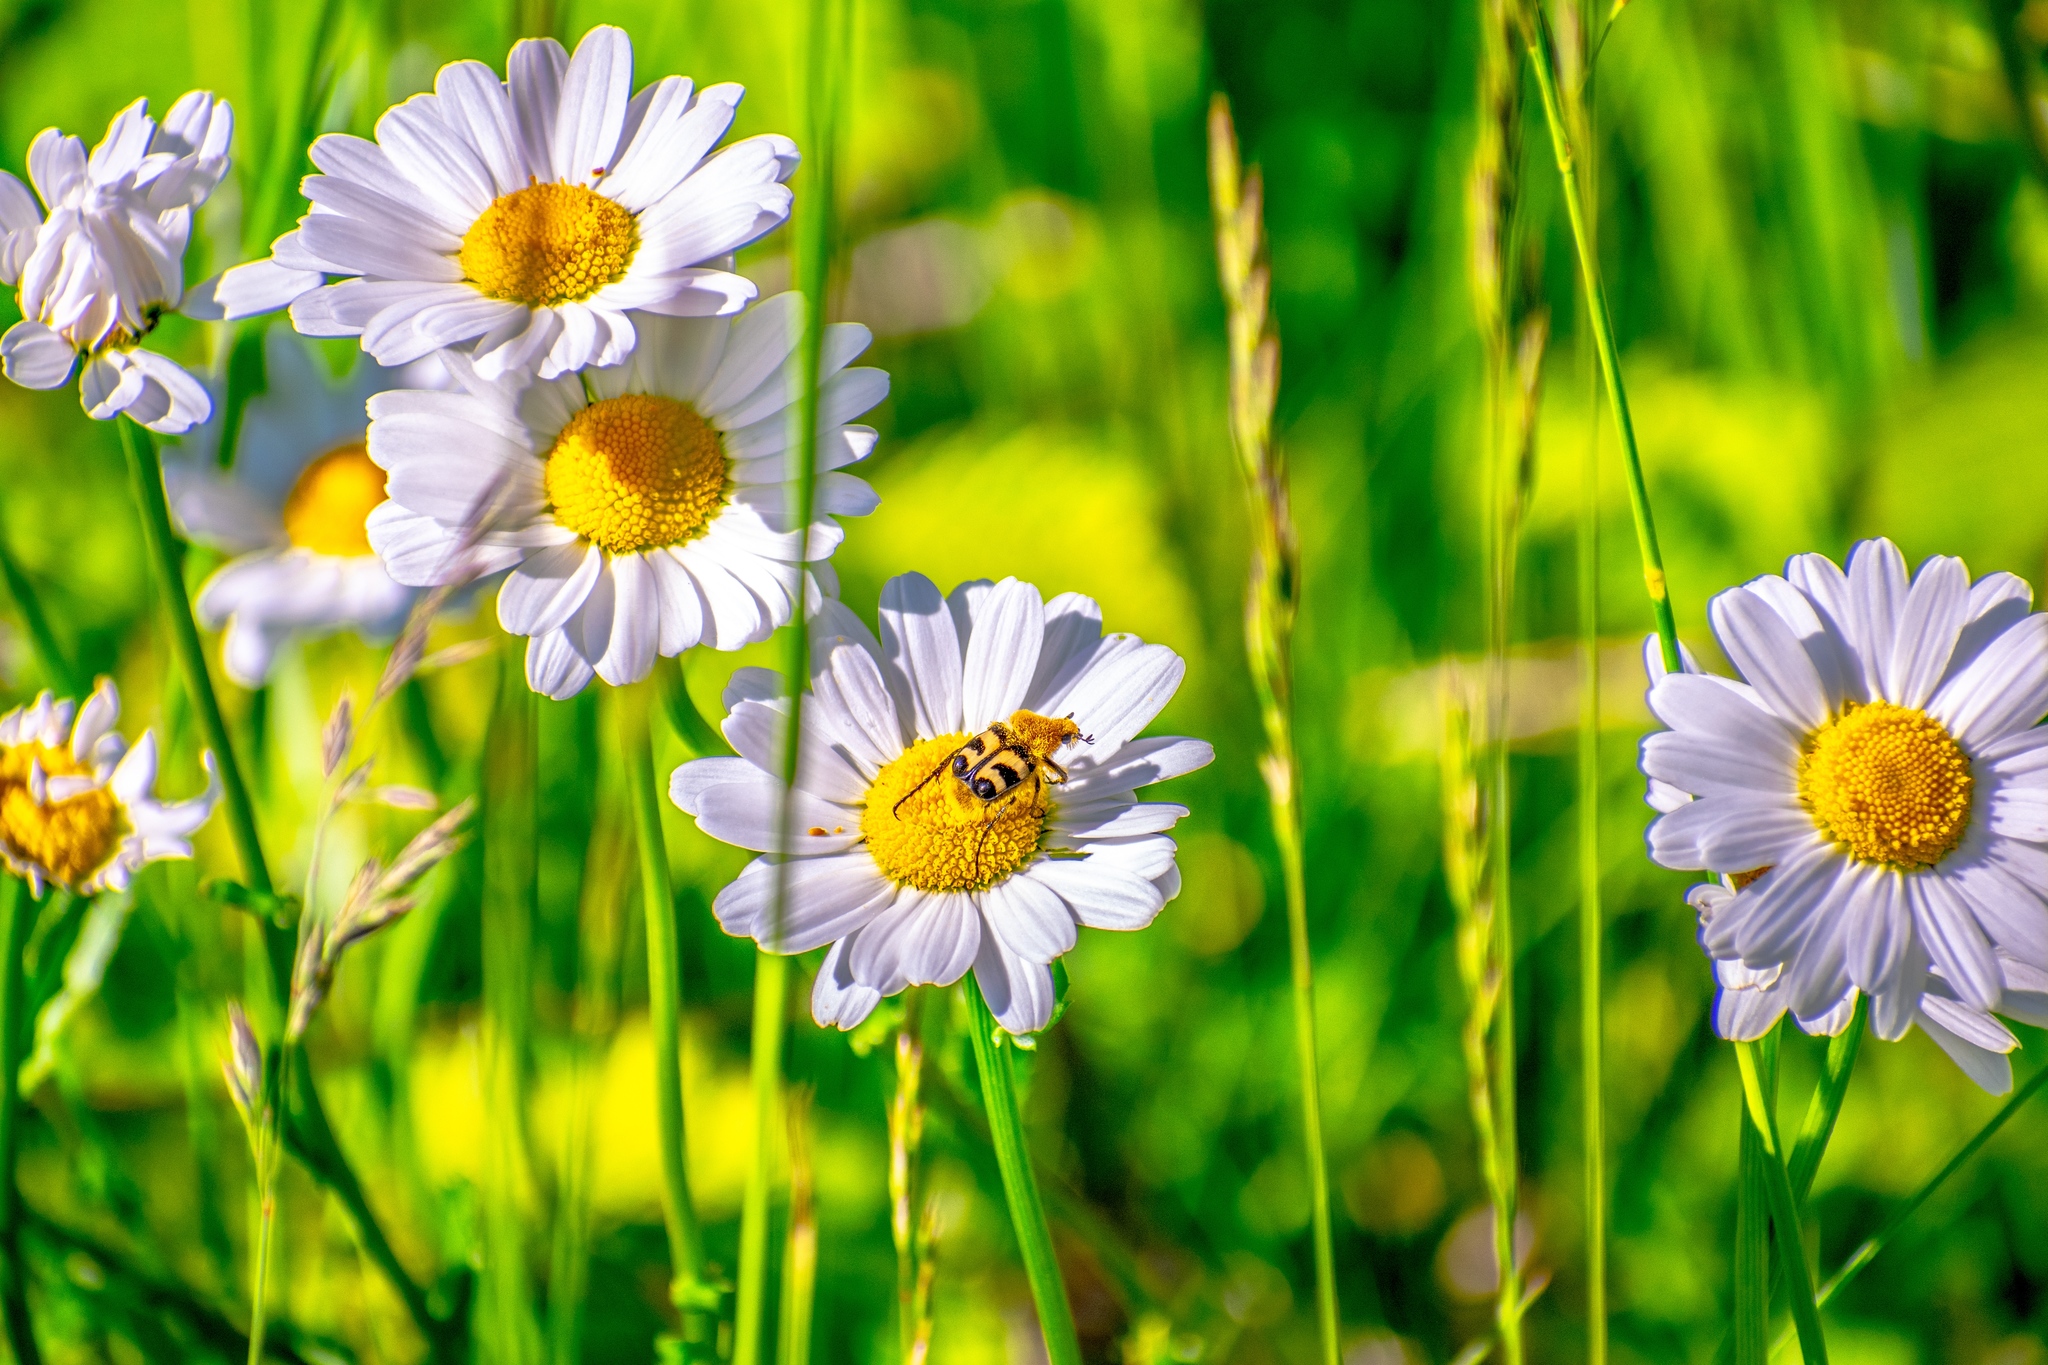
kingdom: Animalia
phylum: Arthropoda
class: Insecta
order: Coleoptera
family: Scarabaeidae
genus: Trichius
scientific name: Trichius fasciatus
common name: Bee beetle
